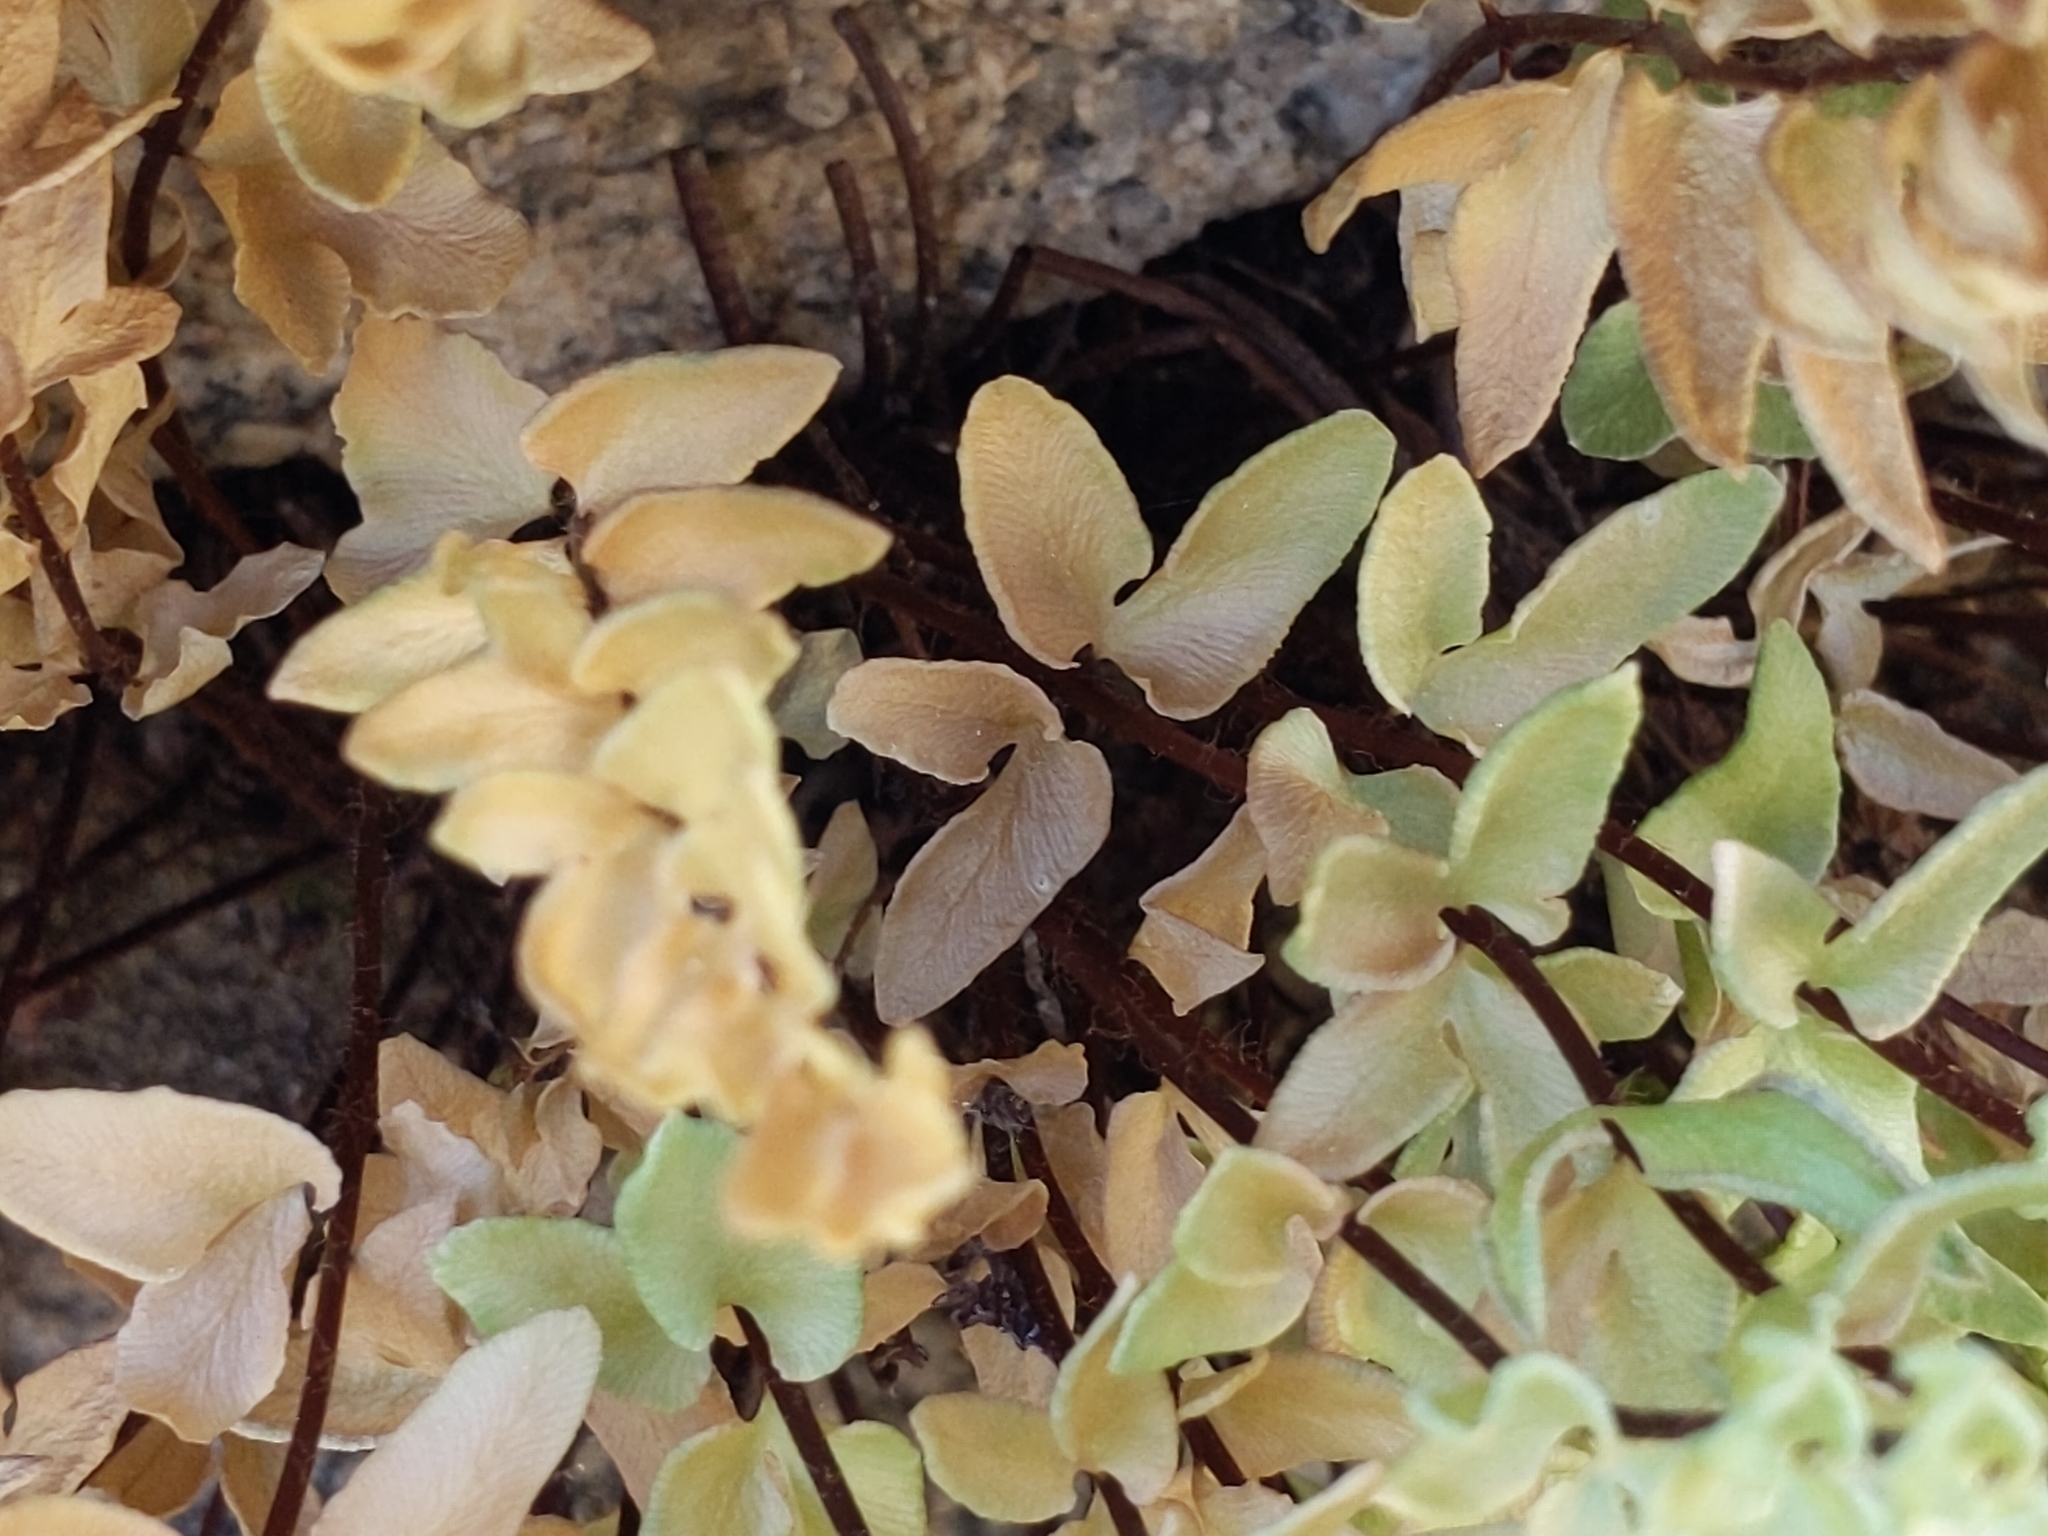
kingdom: Plantae
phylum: Tracheophyta
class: Polypodiopsida
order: Polypodiales
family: Pteridaceae
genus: Pellaea
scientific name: Pellaea breweri
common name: Brewer's cliffbrake
